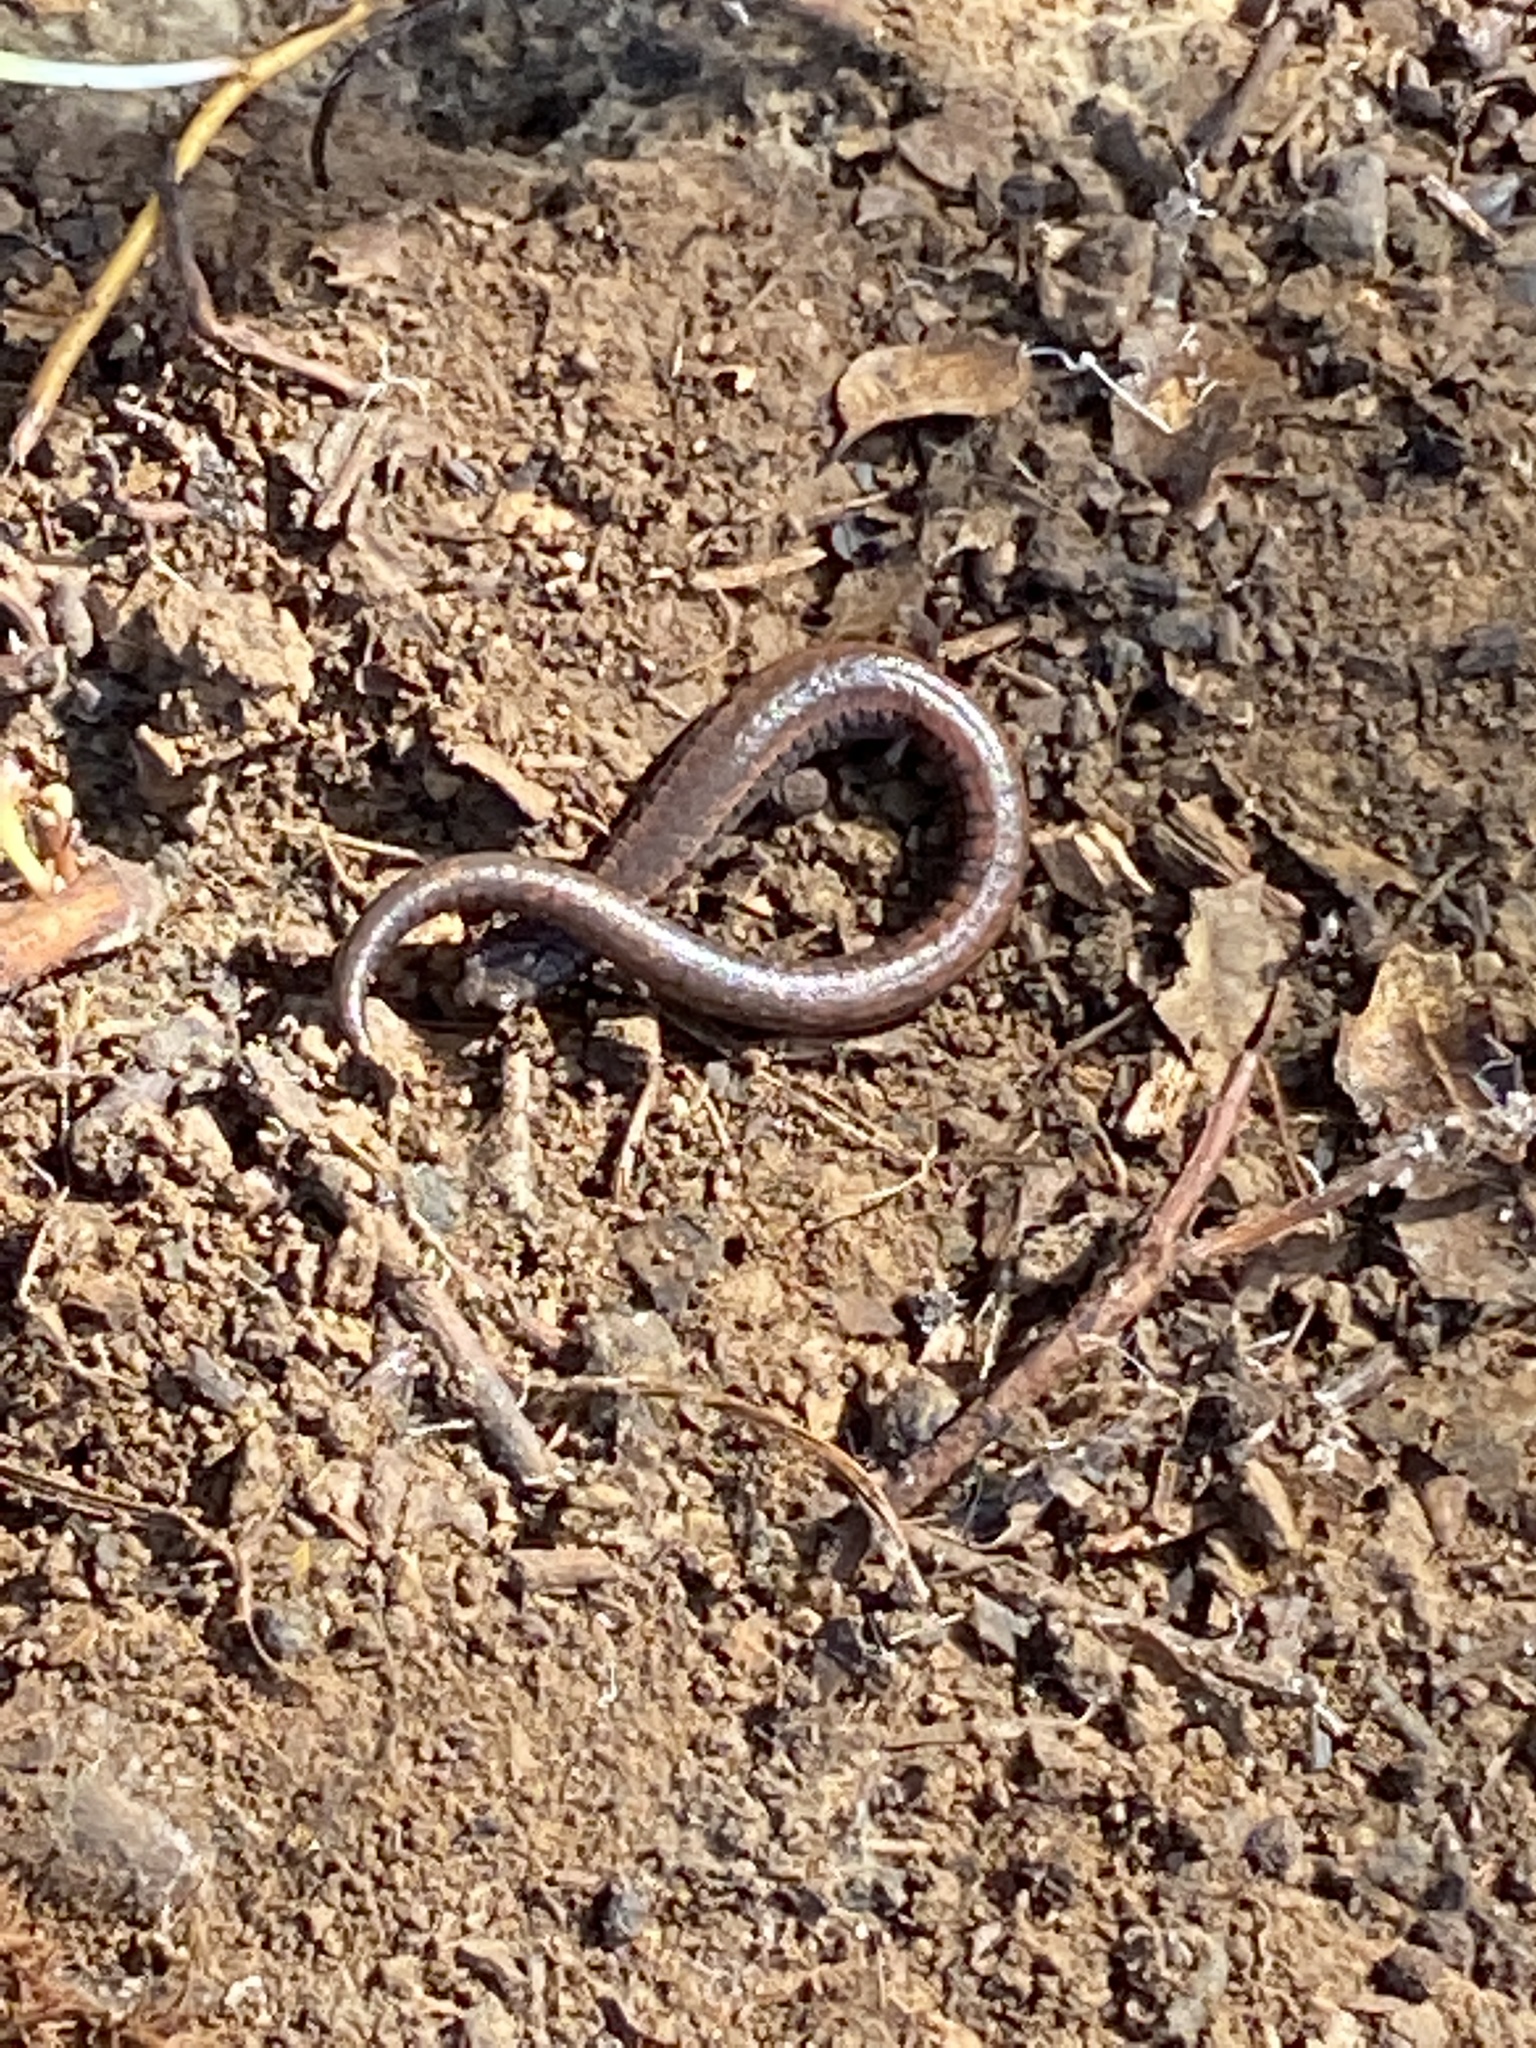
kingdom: Animalia
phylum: Chordata
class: Amphibia
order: Caudata
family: Plethodontidae
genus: Batrachoseps
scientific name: Batrachoseps attenuatus
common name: California slender salamander
